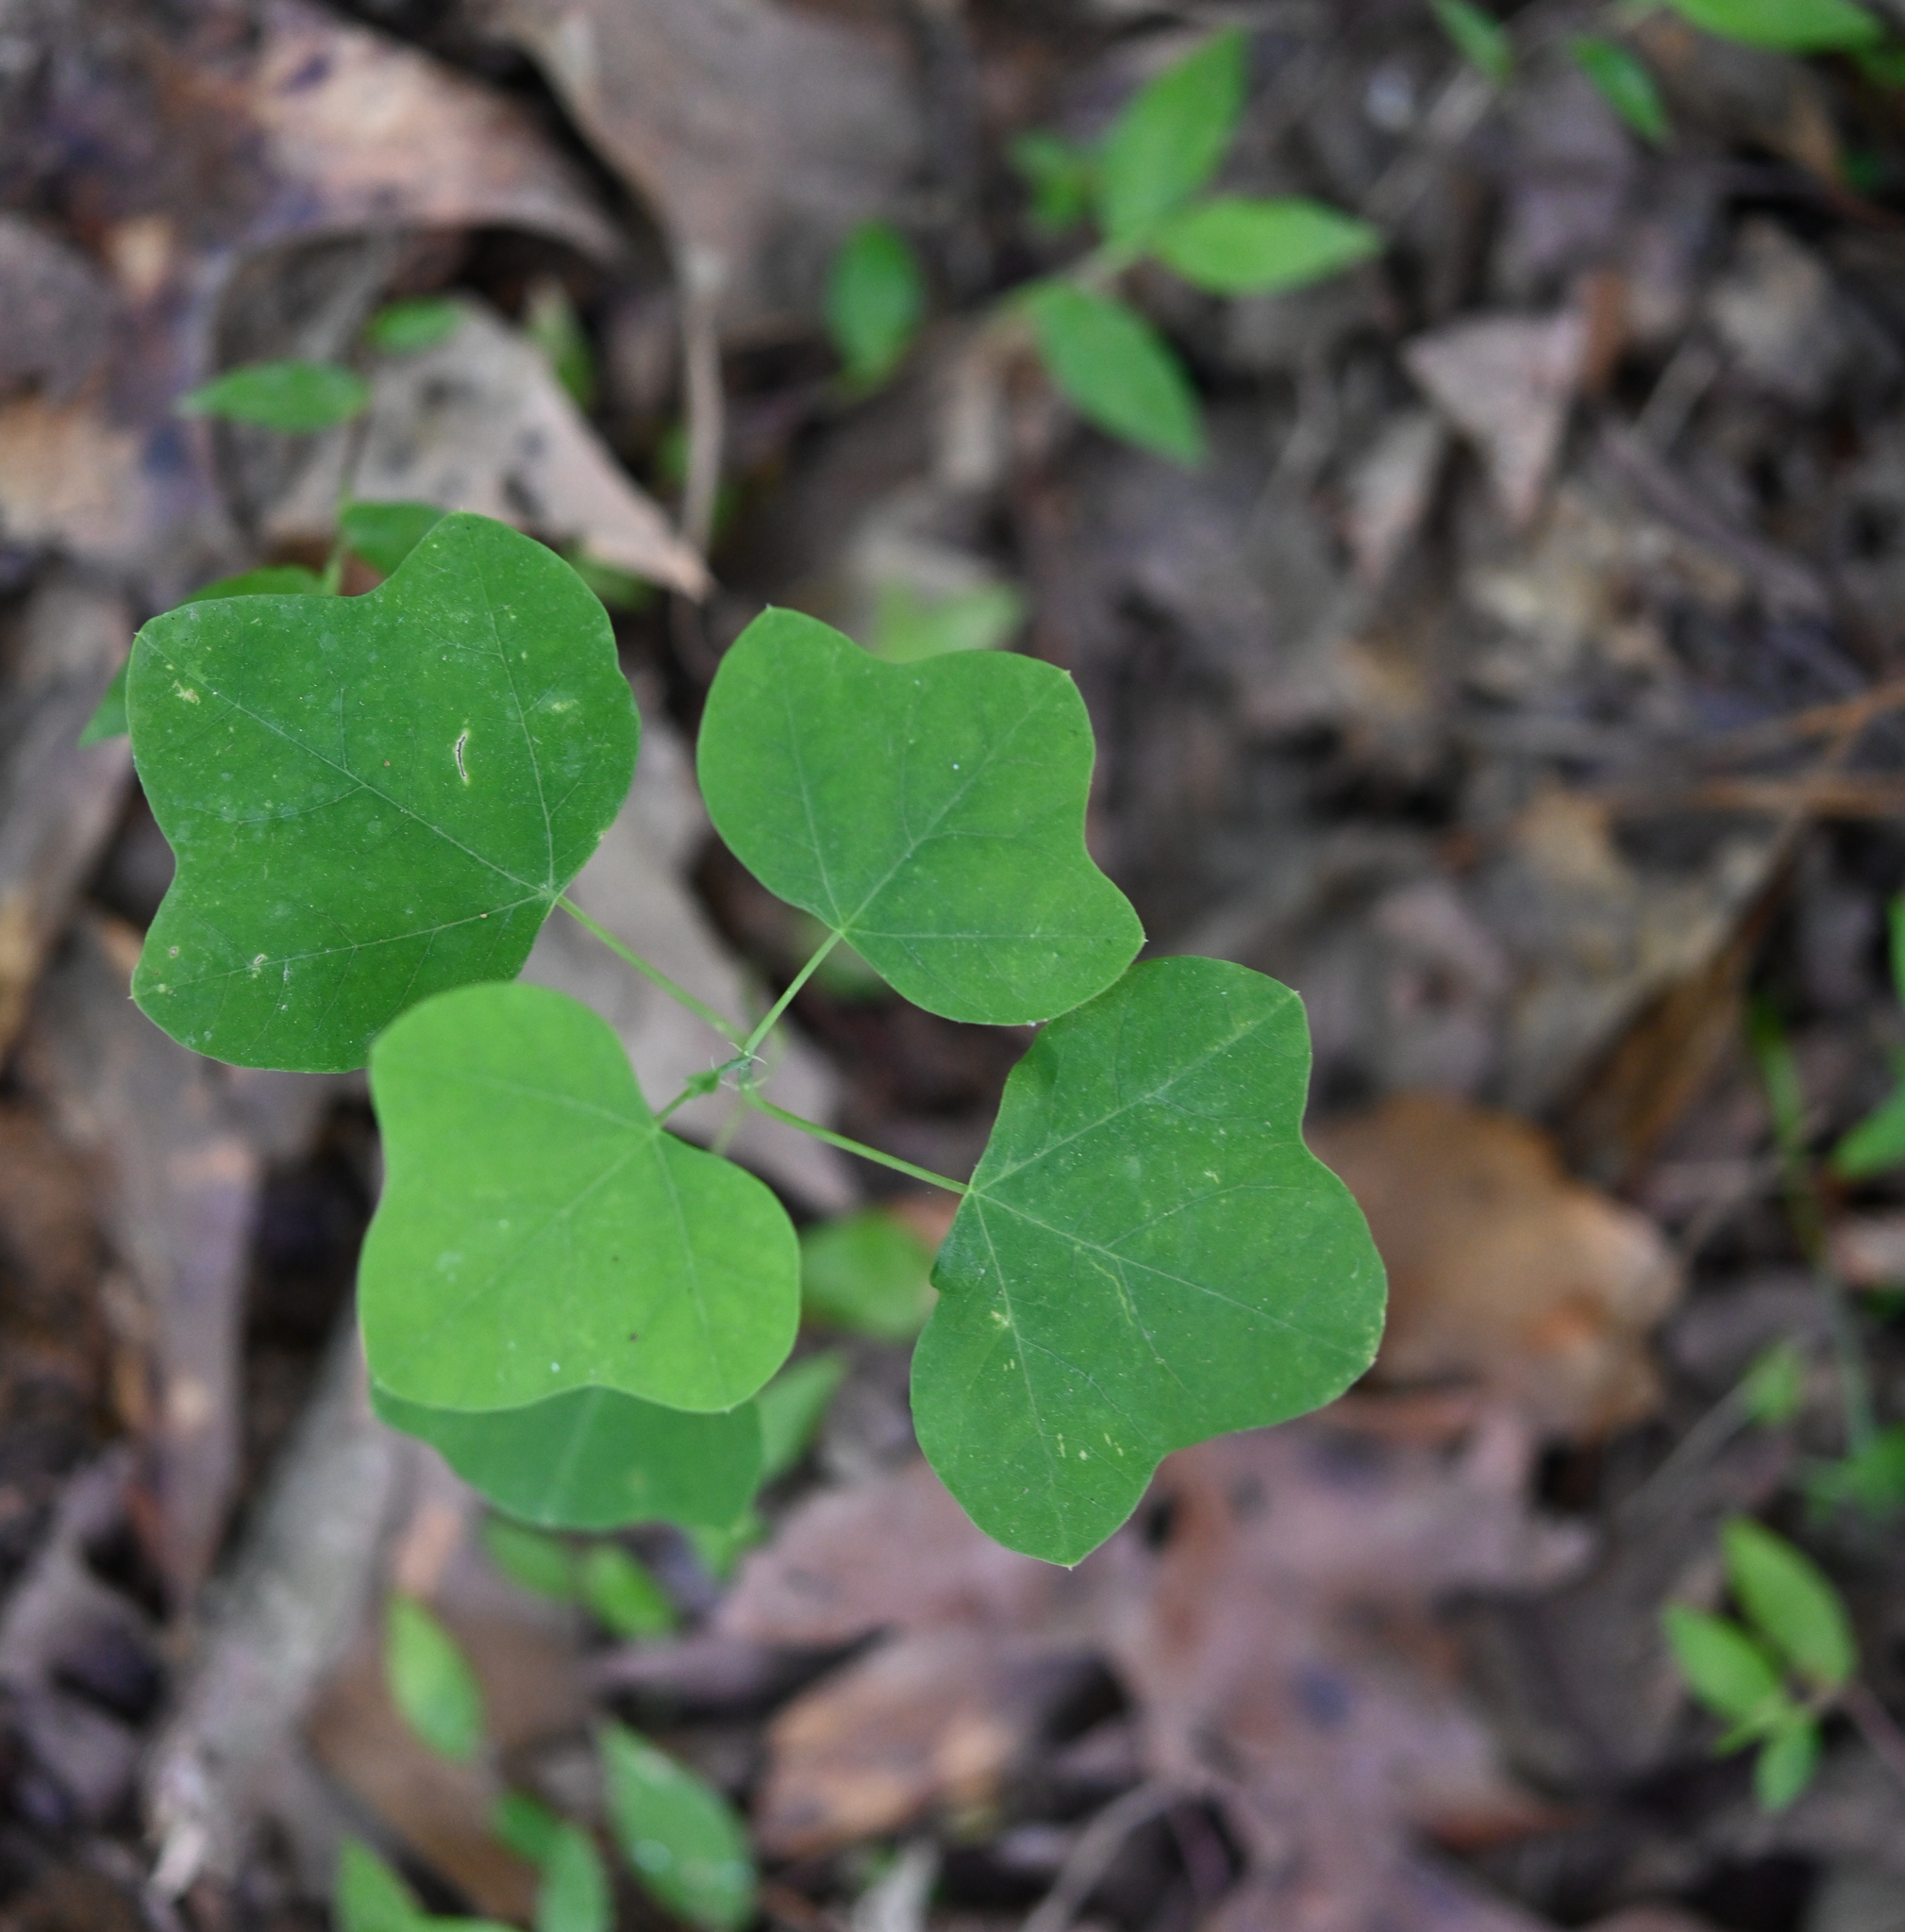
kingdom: Plantae
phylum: Tracheophyta
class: Magnoliopsida
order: Malpighiales
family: Passifloraceae
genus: Passiflora
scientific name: Passiflora lutea
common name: Yellow passionflower
